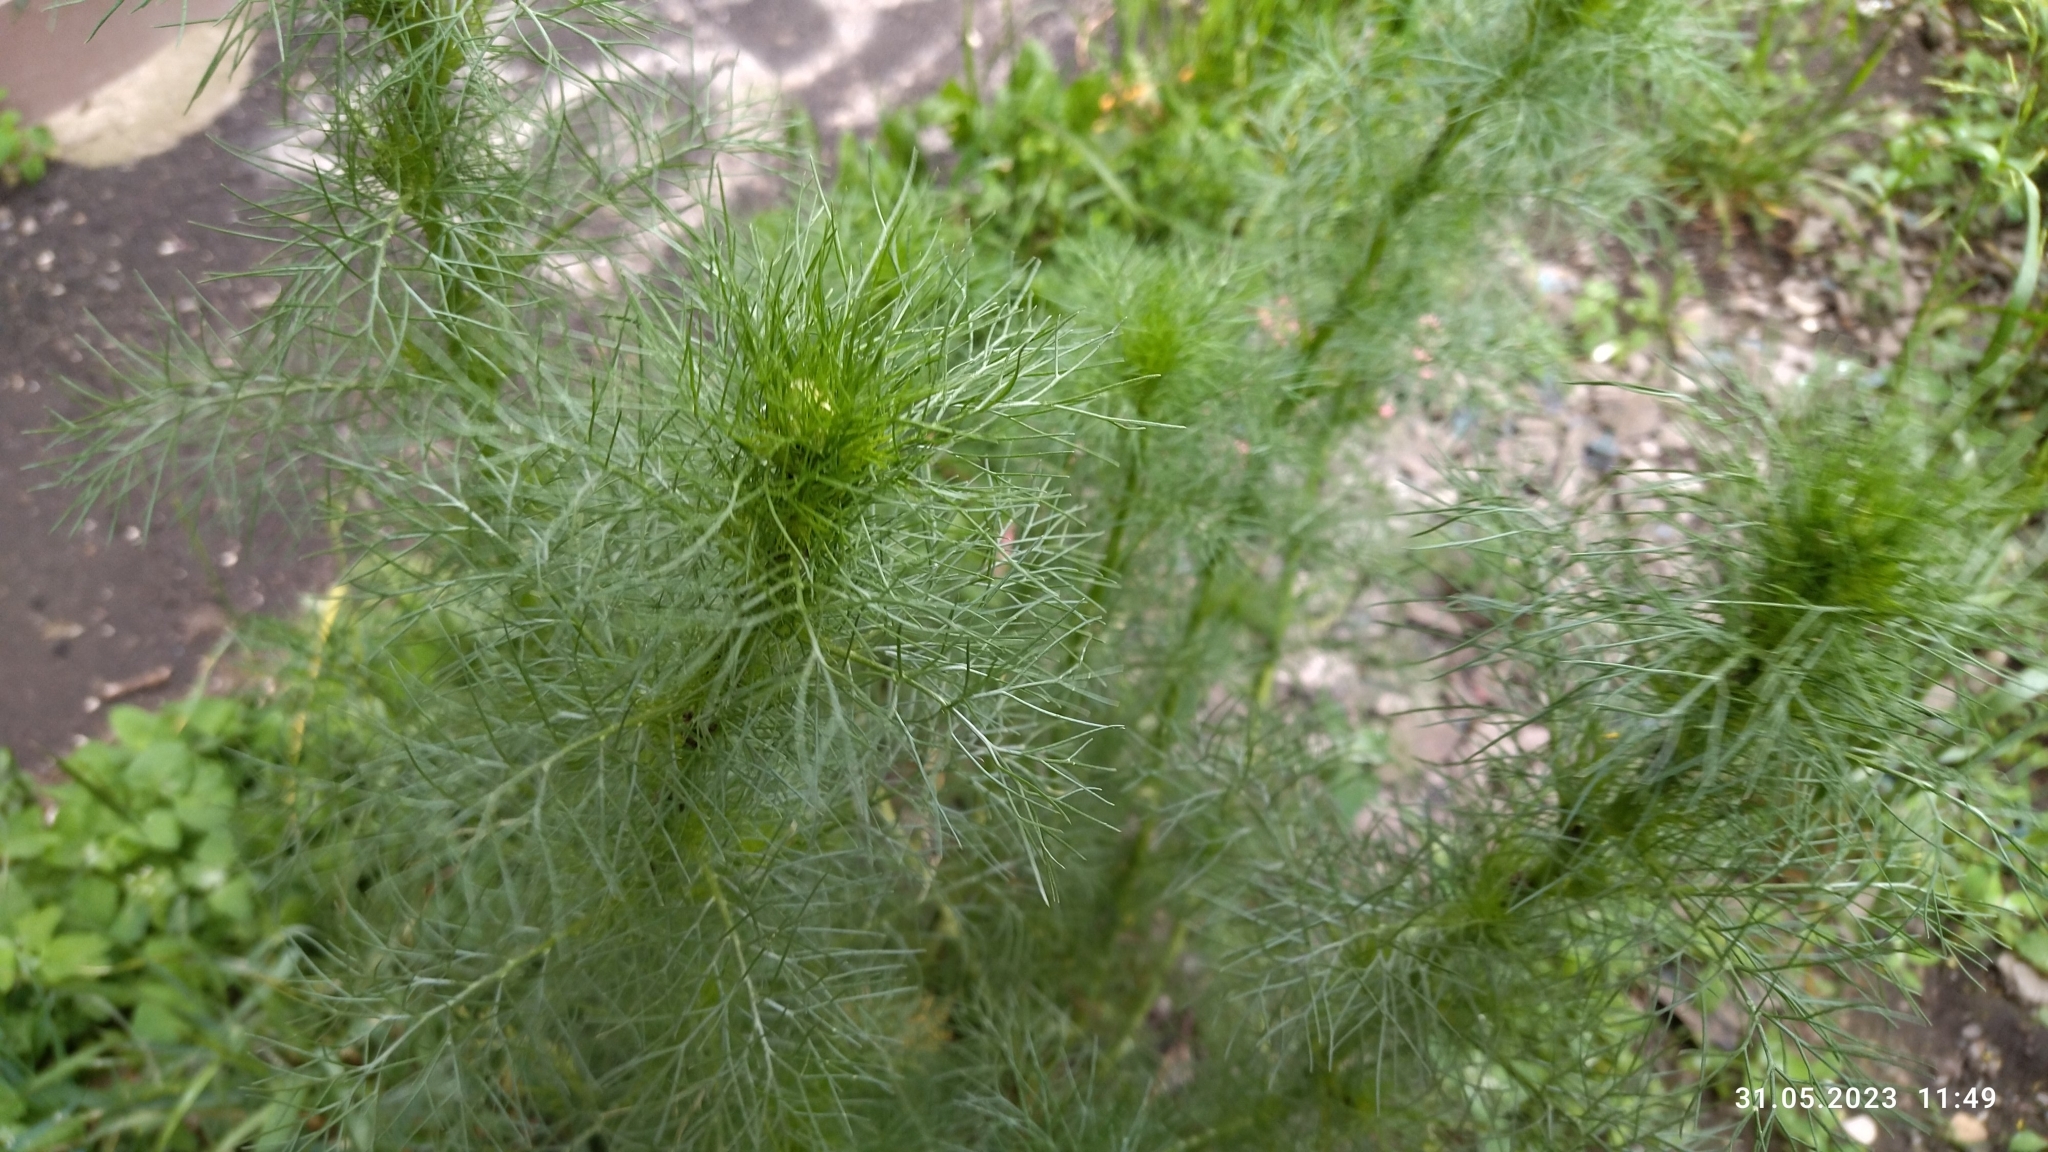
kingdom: Plantae
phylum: Tracheophyta
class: Magnoliopsida
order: Asterales
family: Asteraceae
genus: Tripleurospermum
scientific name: Tripleurospermum inodorum
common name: Scentless mayweed
